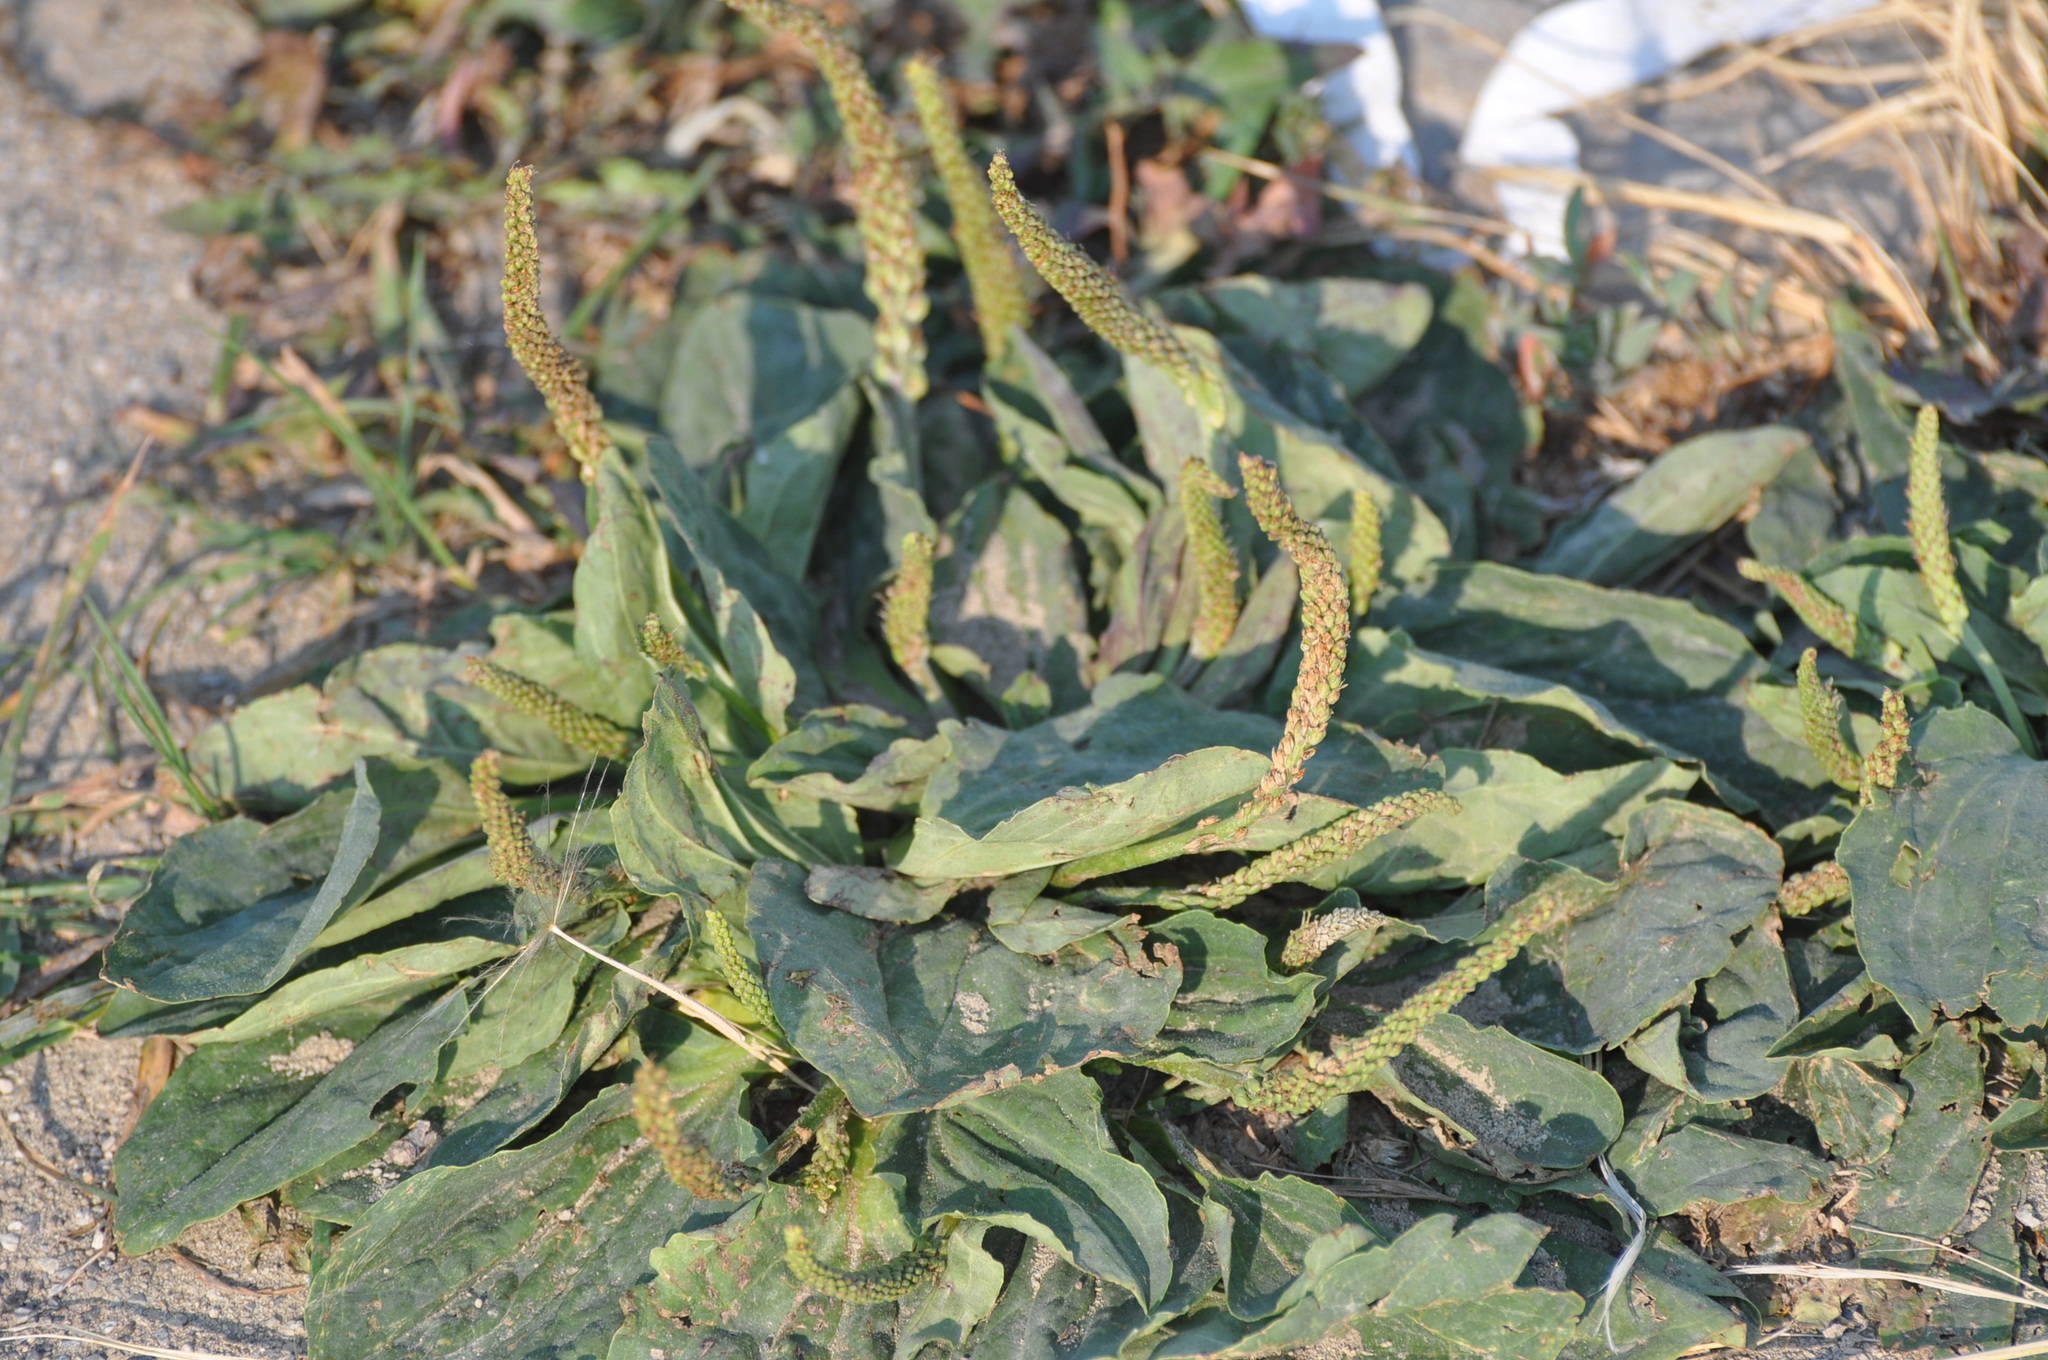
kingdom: Plantae
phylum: Tracheophyta
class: Magnoliopsida
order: Lamiales
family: Plantaginaceae
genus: Plantago
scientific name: Plantago major
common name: Common plantain
